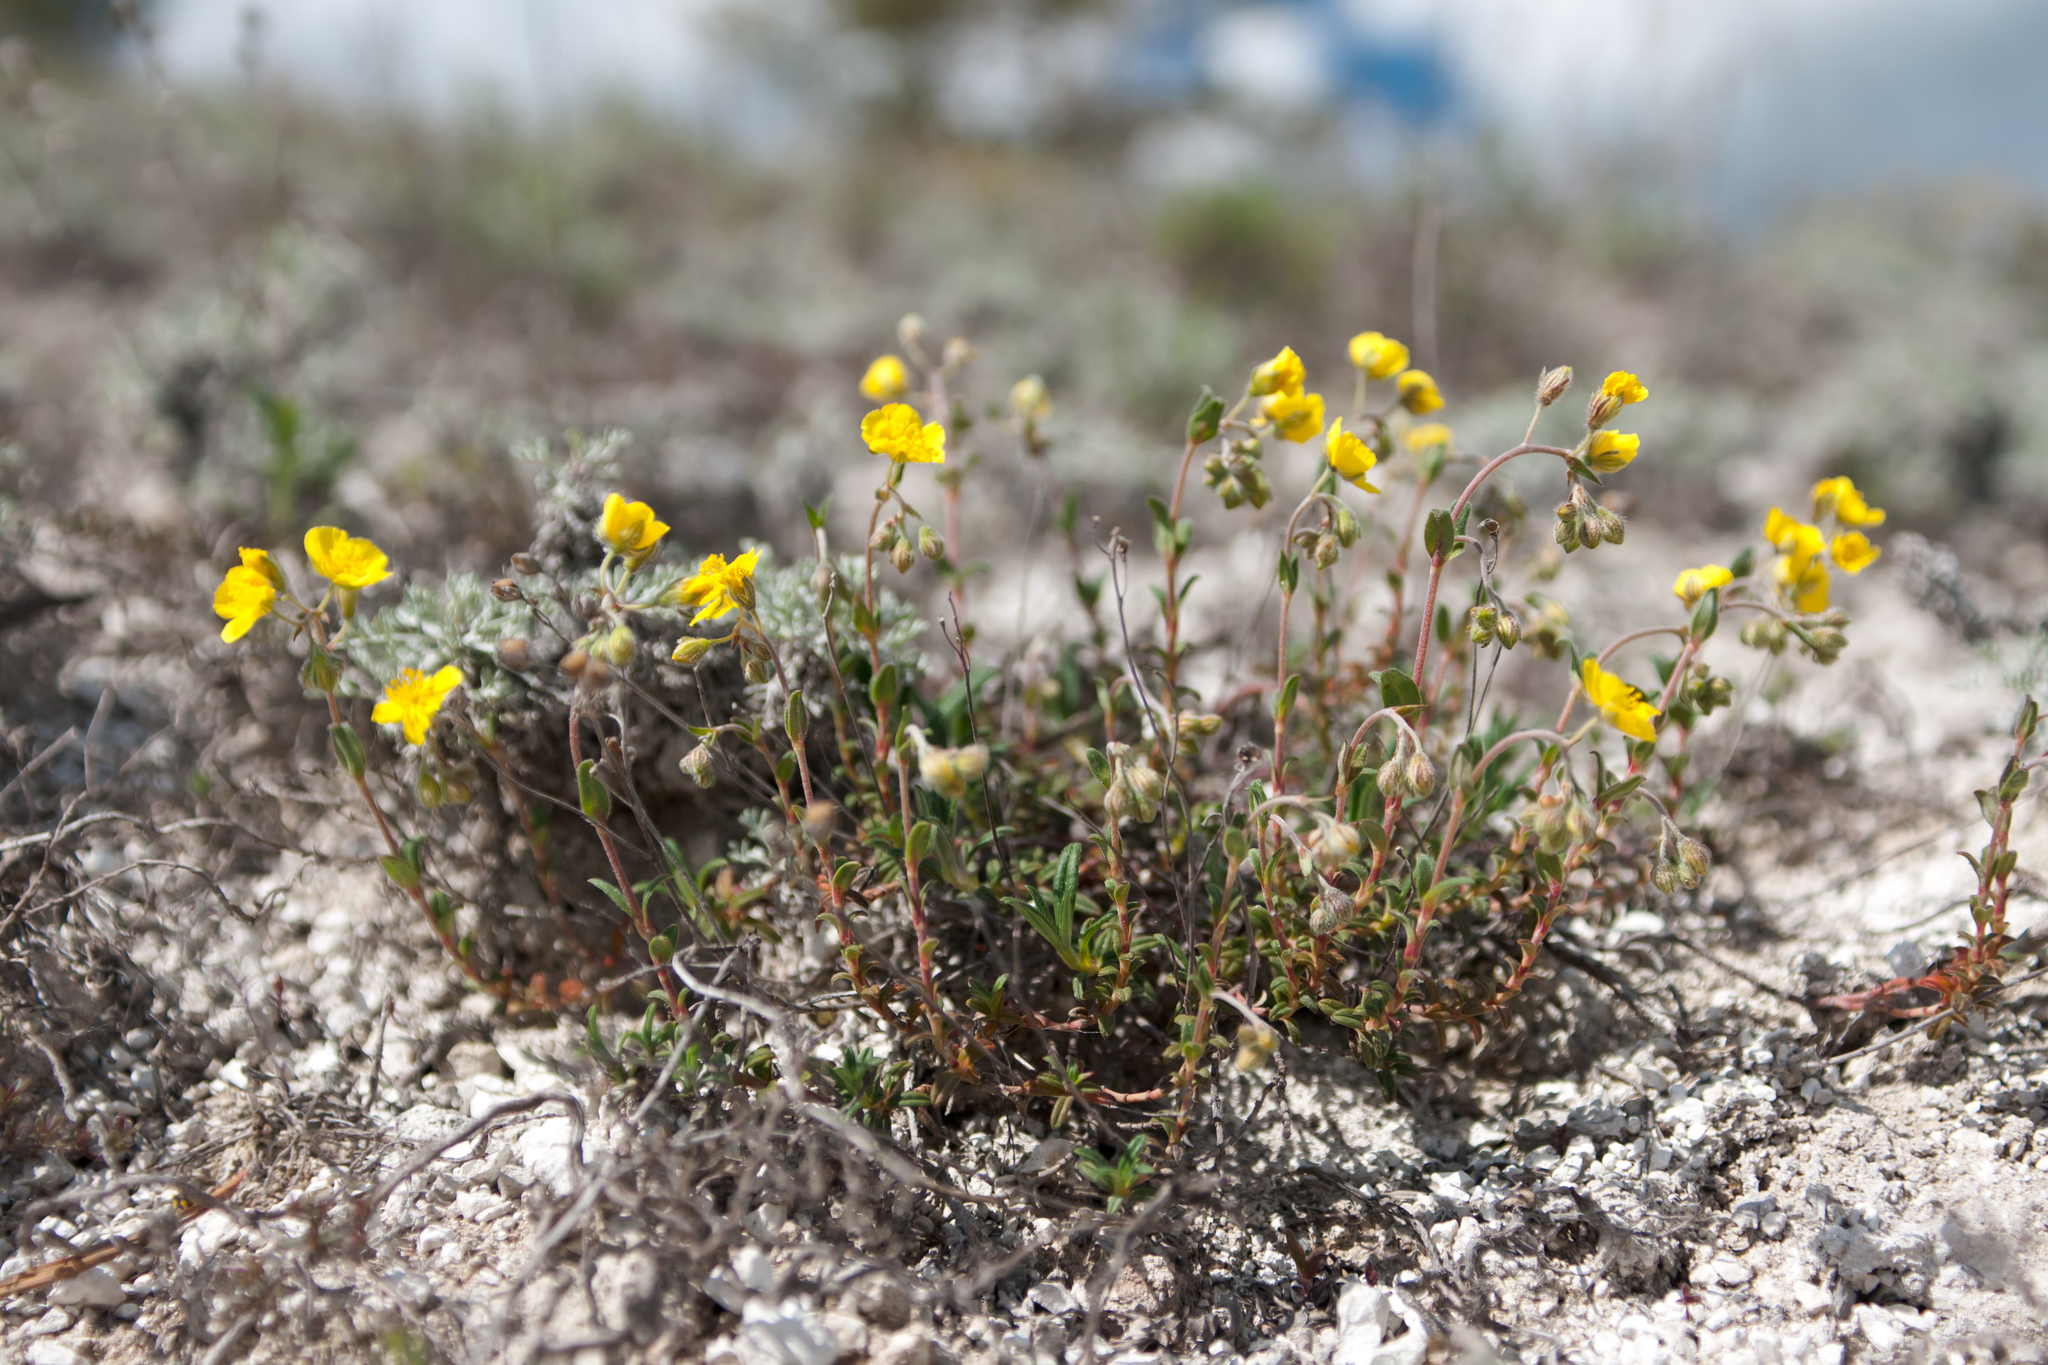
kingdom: Plantae
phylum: Tracheophyta
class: Magnoliopsida
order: Malvales
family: Cistaceae
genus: Helianthemum
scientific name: Helianthemum rupifragum
